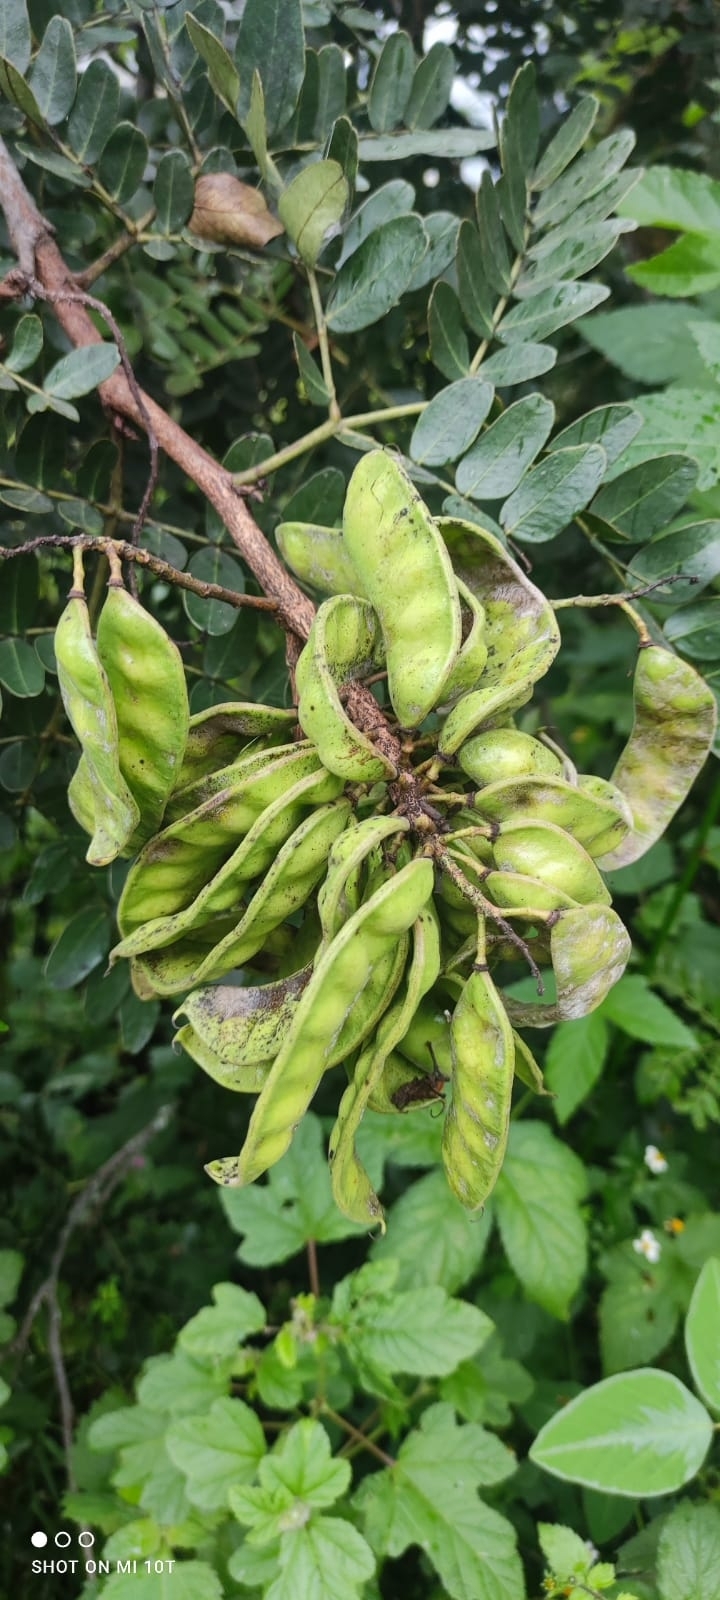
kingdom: Plantae
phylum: Tracheophyta
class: Magnoliopsida
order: Fabales
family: Fabaceae
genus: Tara
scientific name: Tara spinosa
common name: Spiny holdback
